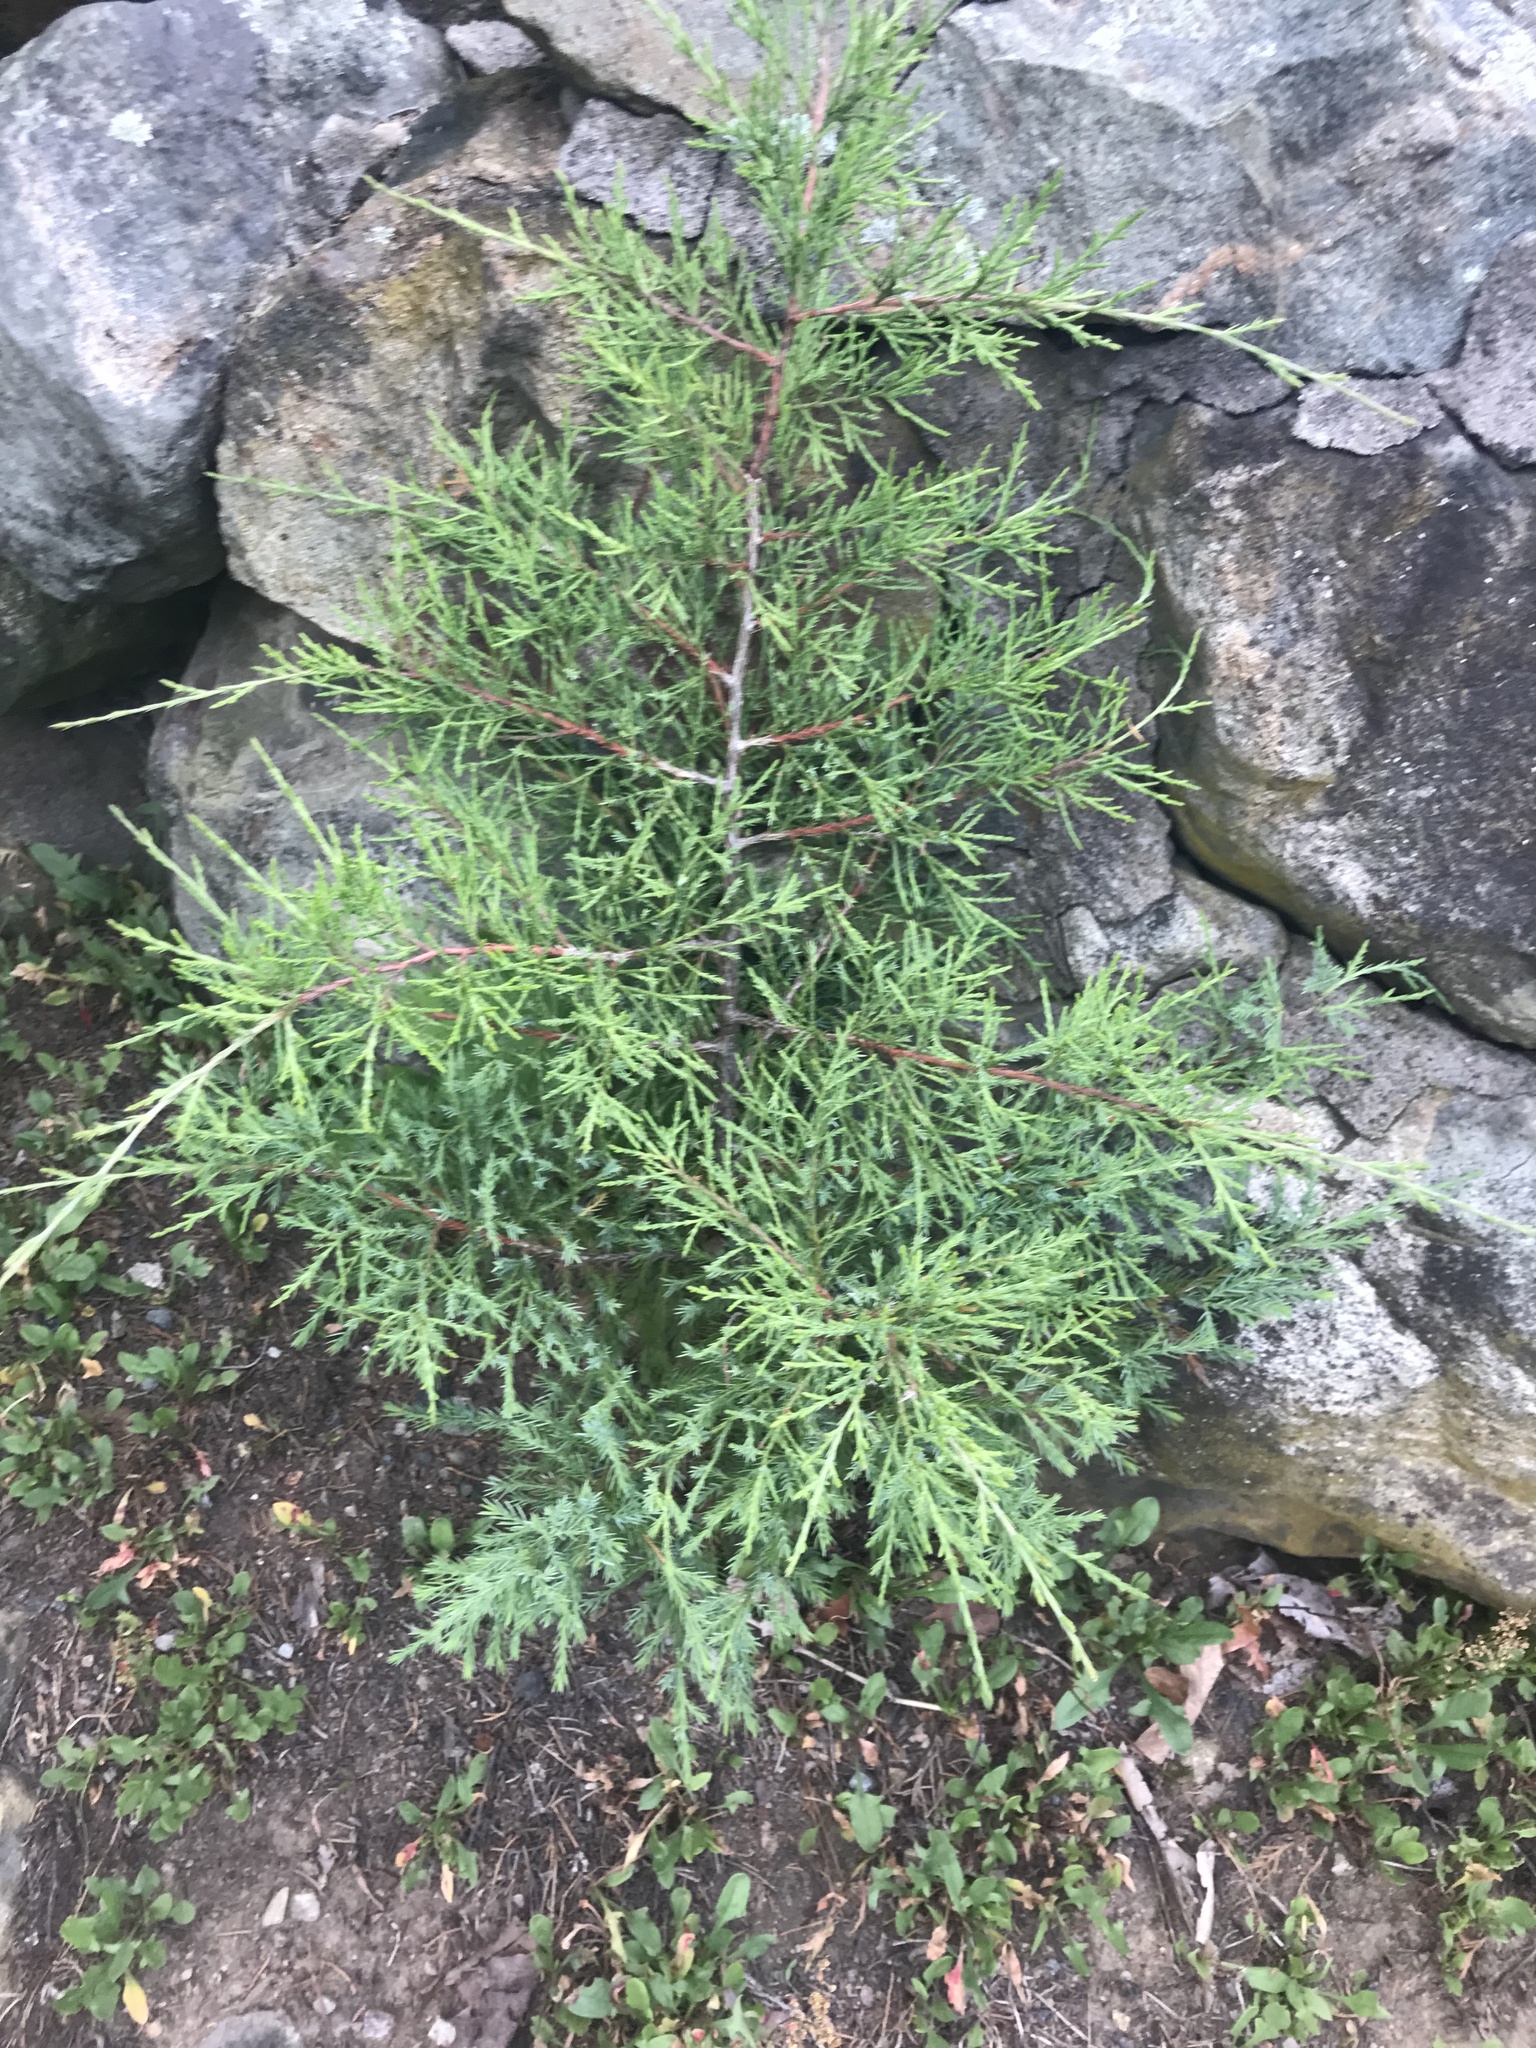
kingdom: Plantae
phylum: Tracheophyta
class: Pinopsida
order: Pinales
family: Cupressaceae
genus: Juniperus
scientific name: Juniperus virginiana
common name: Red juniper
